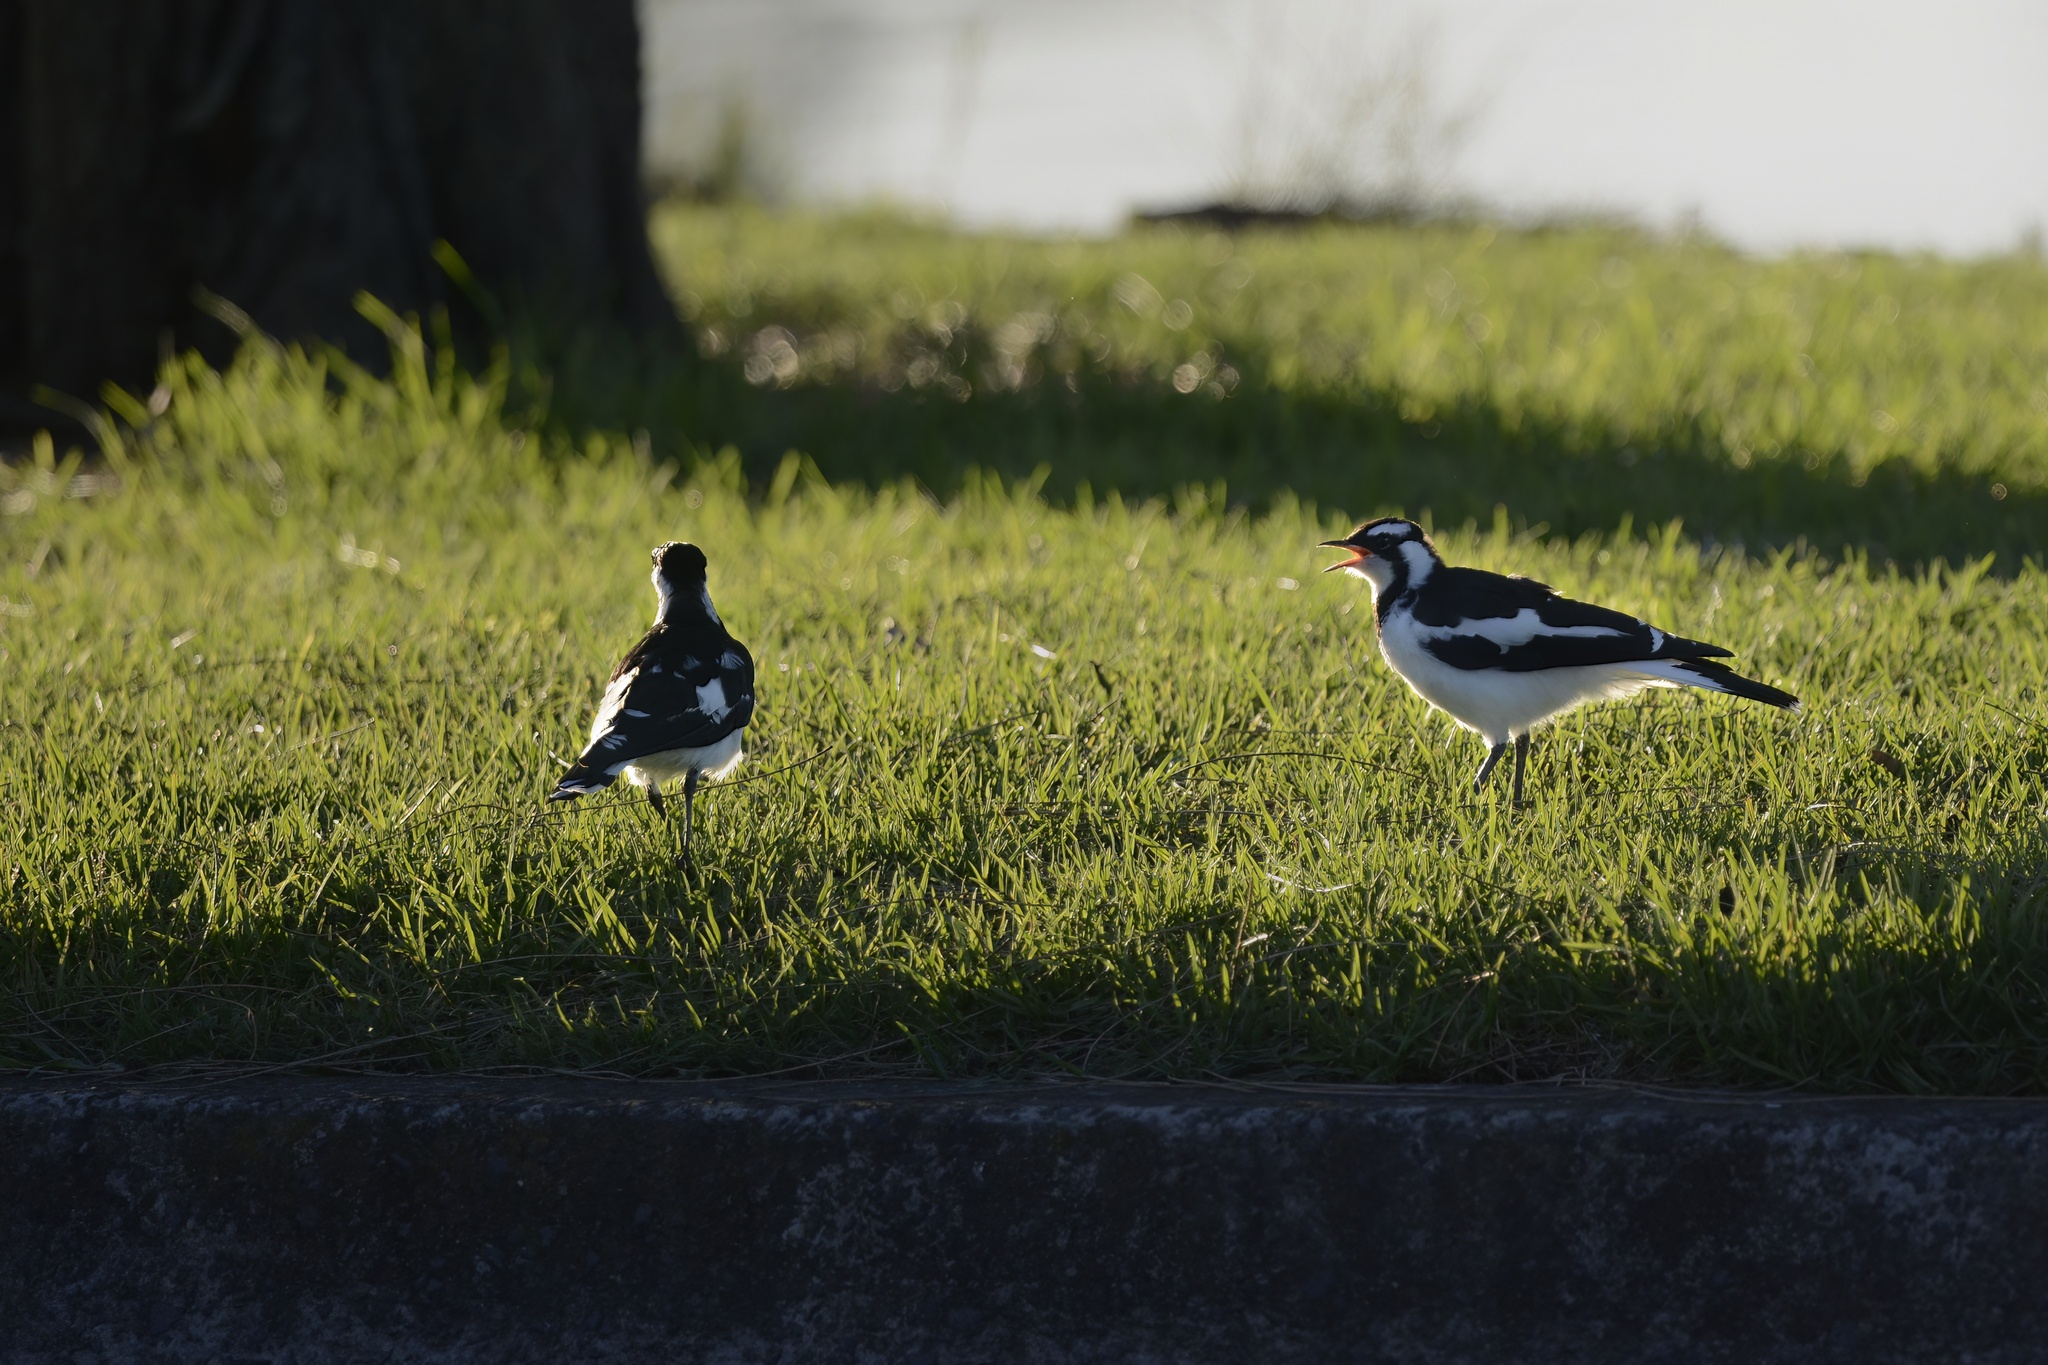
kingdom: Animalia
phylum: Chordata
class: Aves
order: Passeriformes
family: Monarchidae
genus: Grallina
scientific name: Grallina cyanoleuca
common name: Magpie-lark
